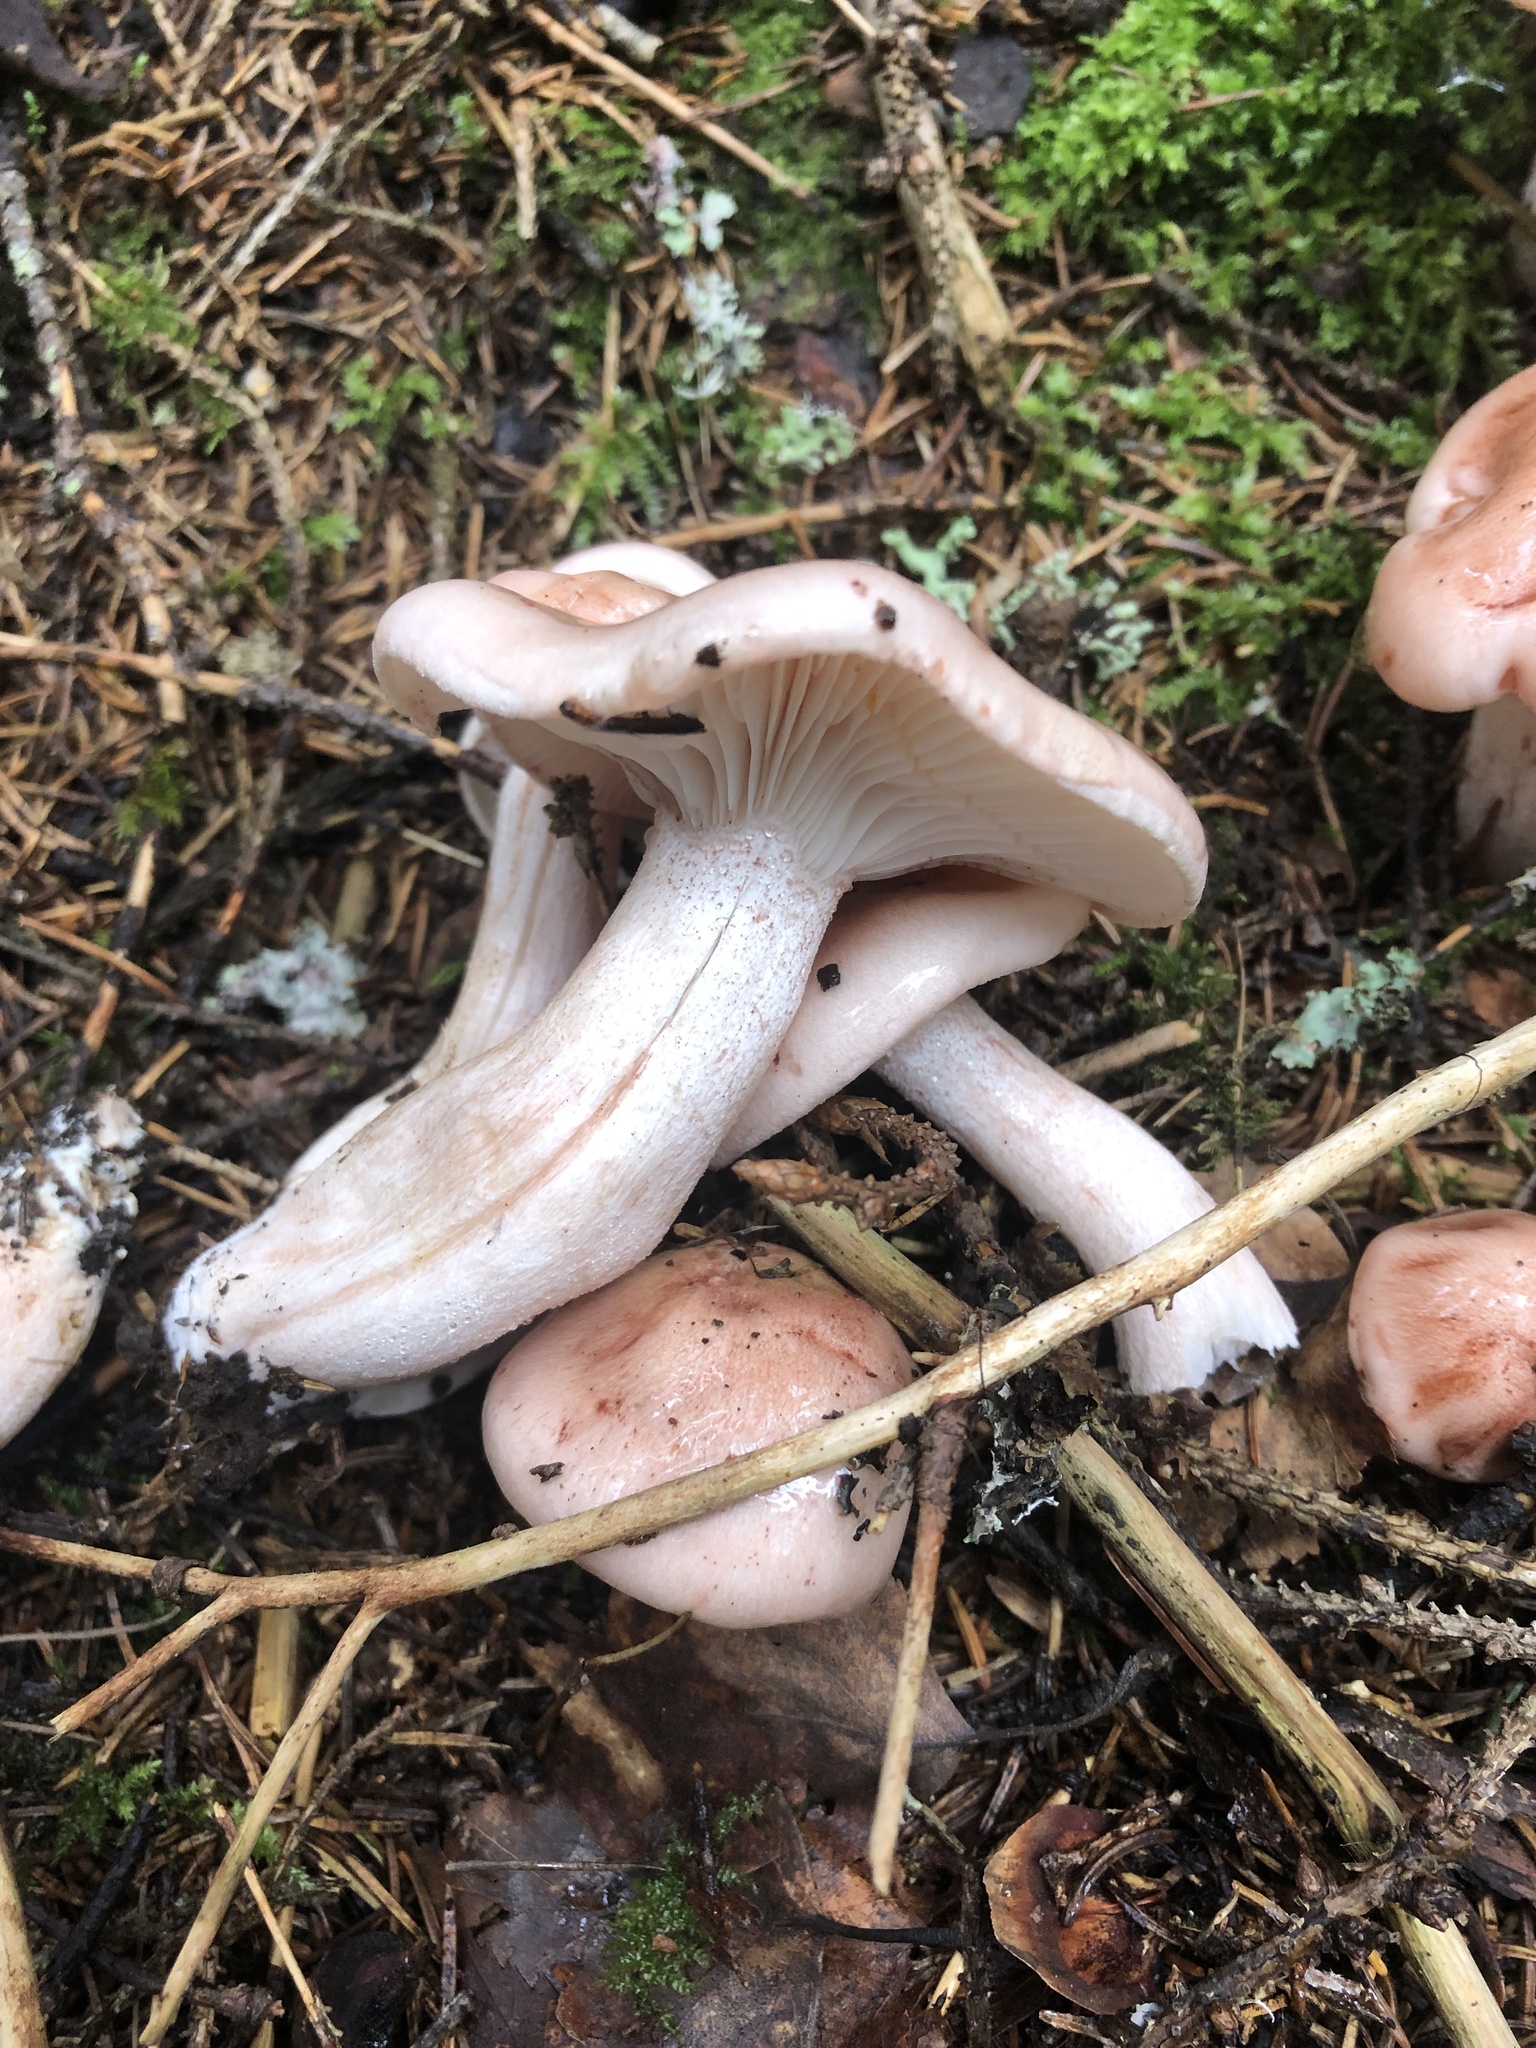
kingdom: Fungi
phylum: Basidiomycota
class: Agaricomycetes
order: Agaricales
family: Hygrophoraceae
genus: Hygrophorus
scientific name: Hygrophorus erubescens
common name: Blotched woodwax
